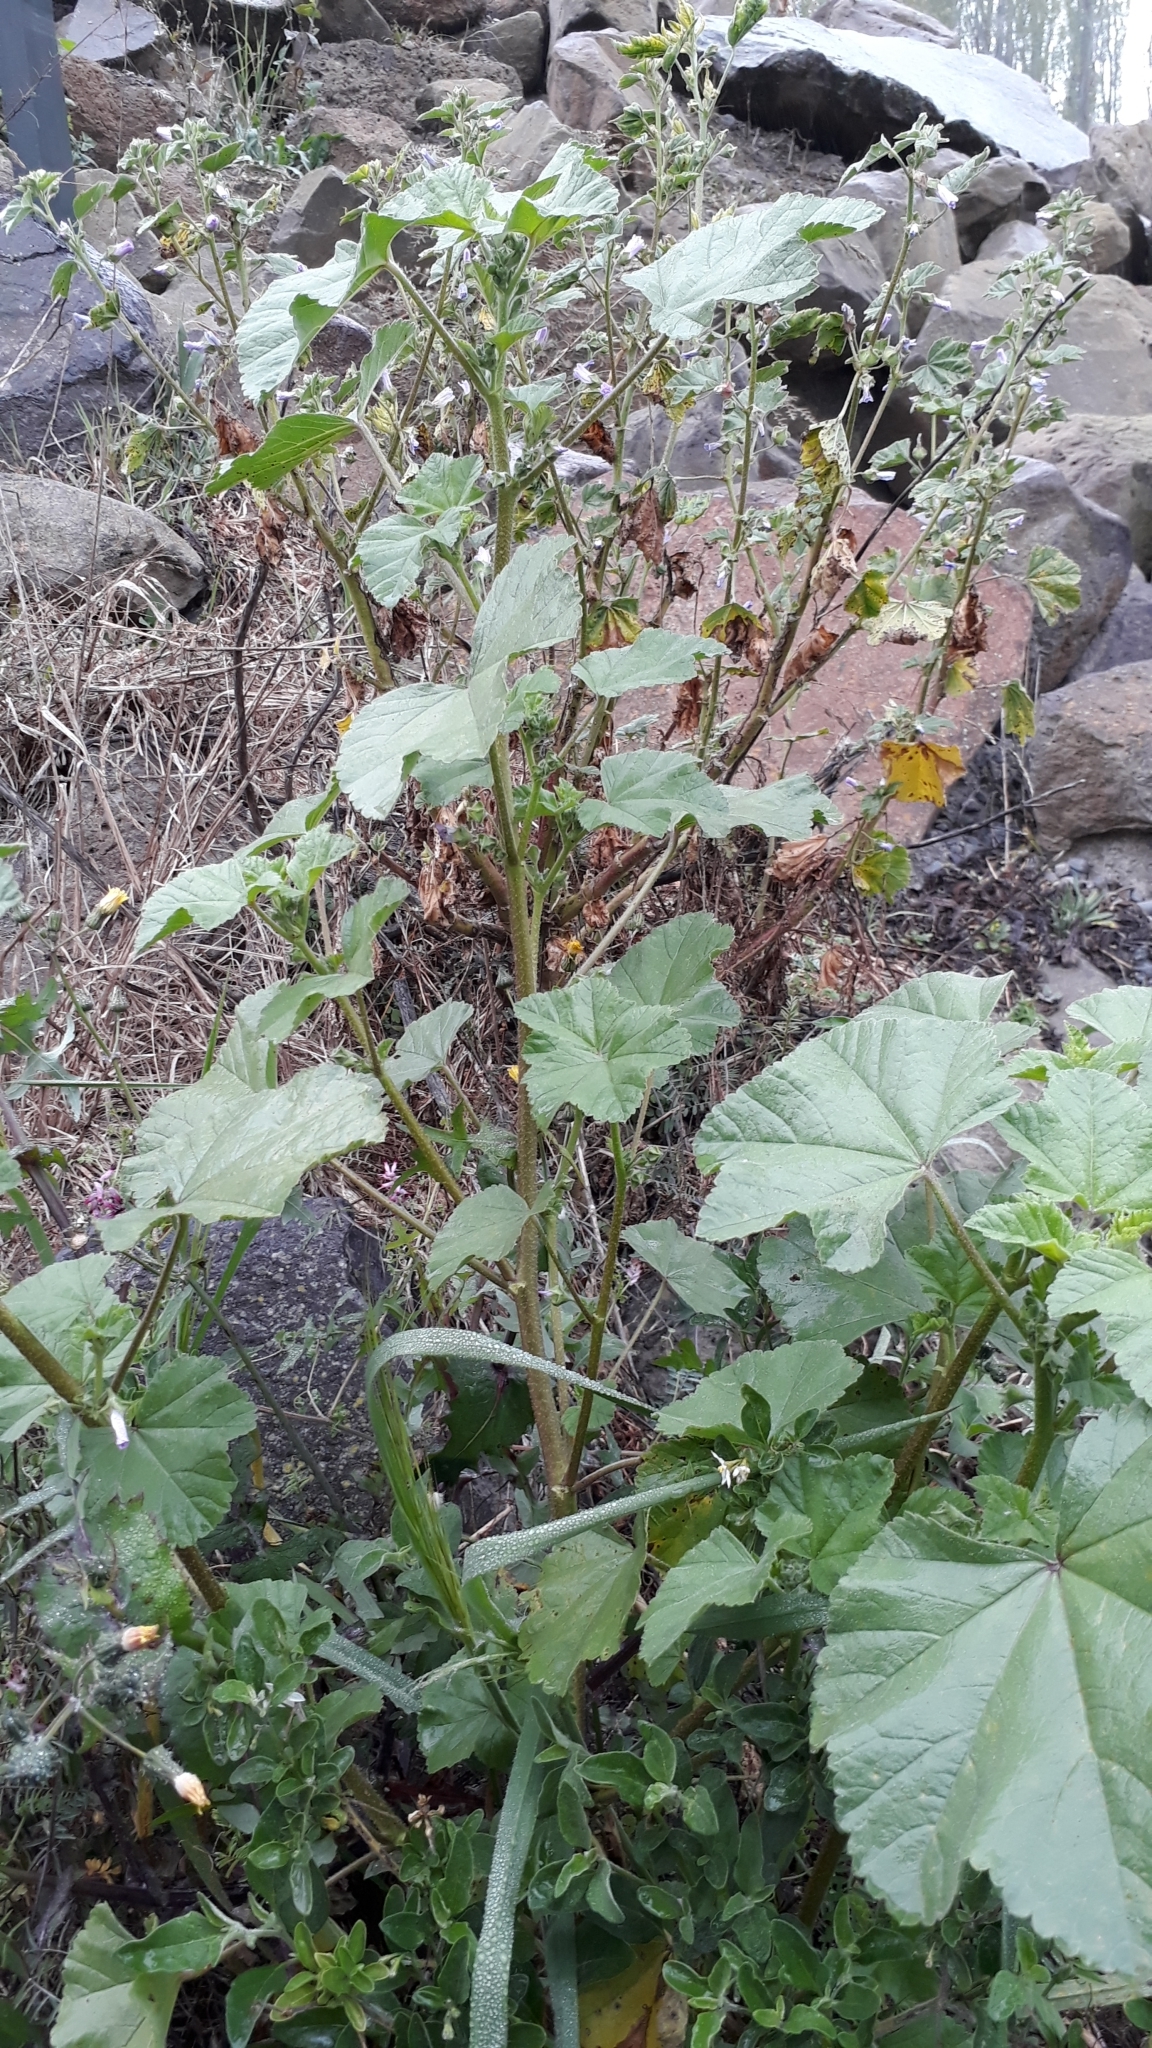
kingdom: Plantae
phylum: Tracheophyta
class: Magnoliopsida
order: Malvales
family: Malvaceae
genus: Malva
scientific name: Malva sylvestris
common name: Common mallow
